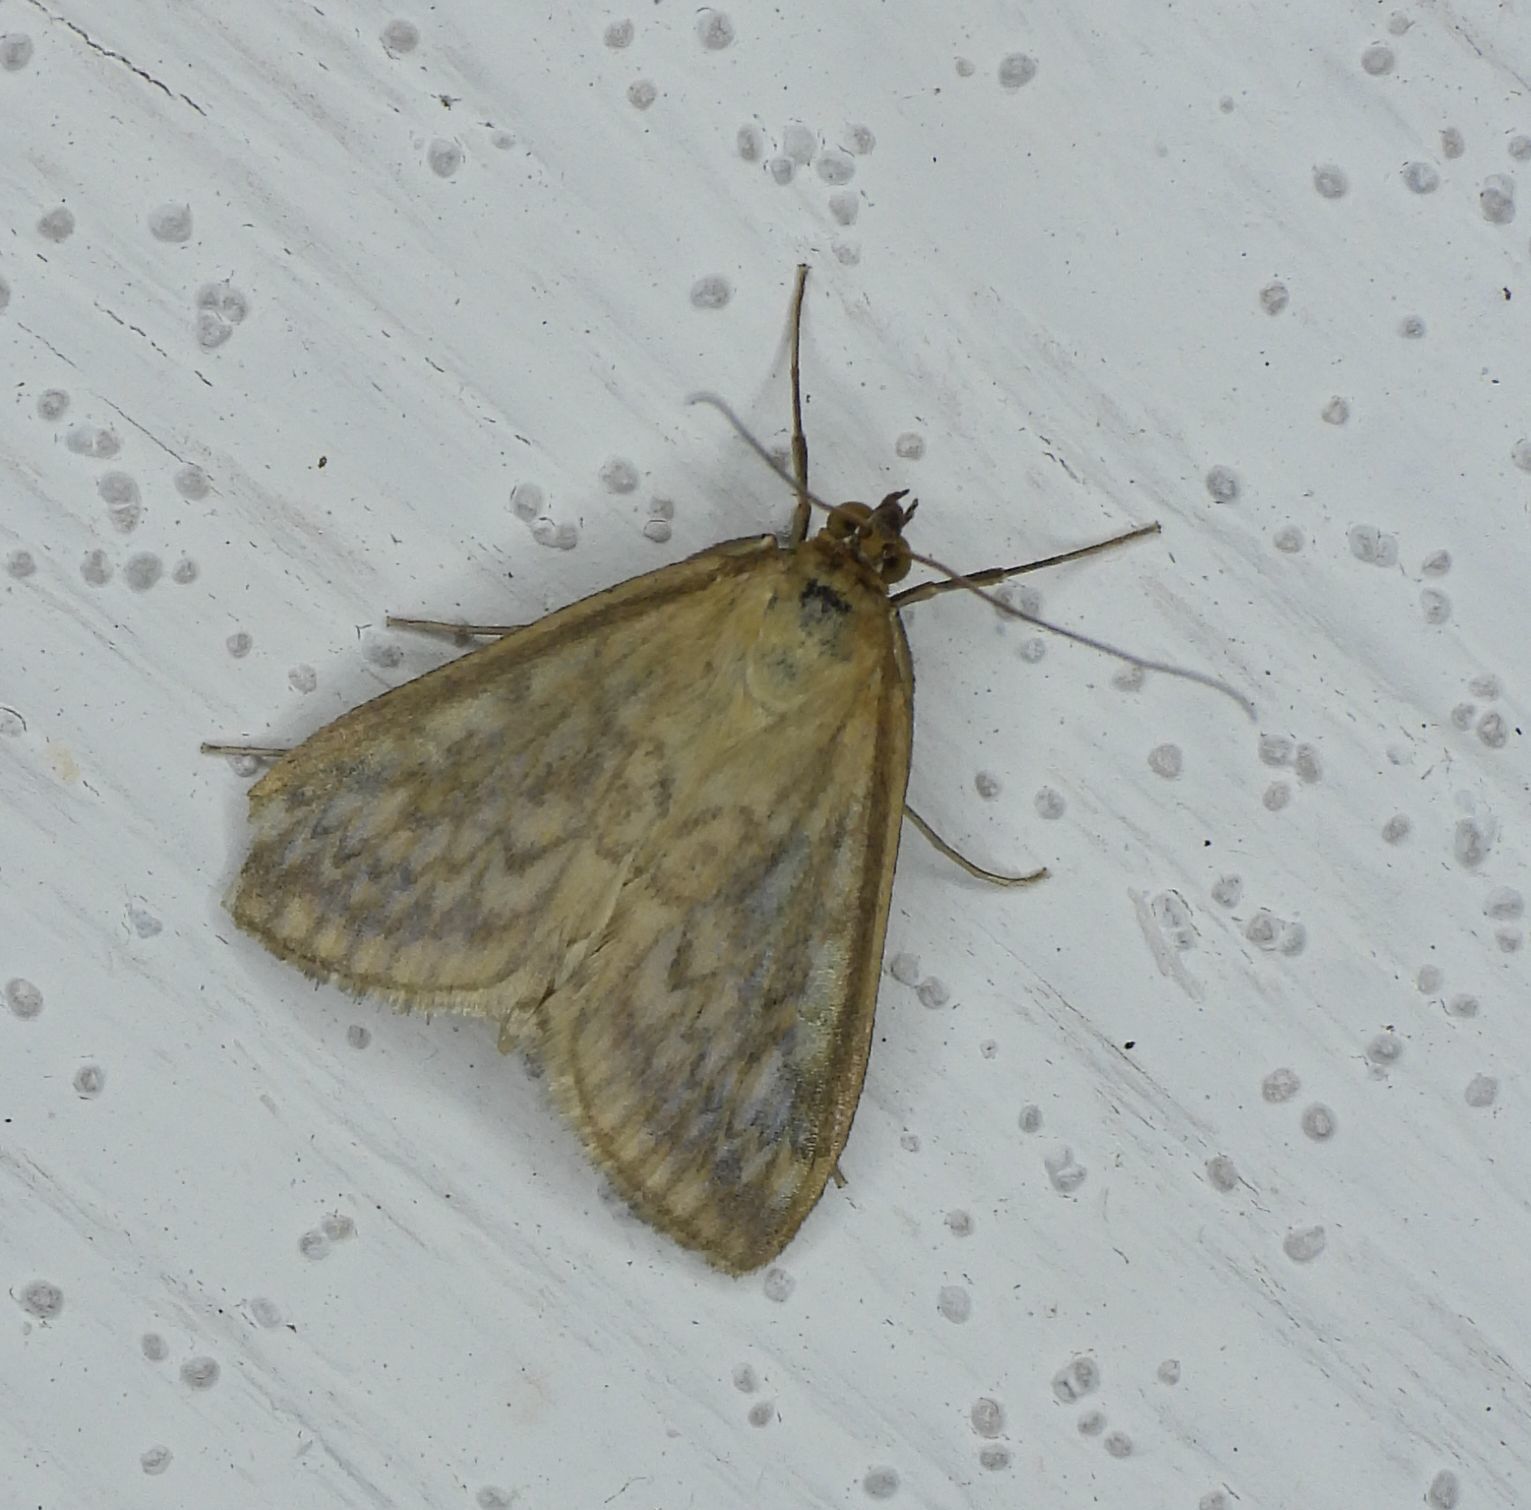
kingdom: Animalia
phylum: Arthropoda
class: Insecta
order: Lepidoptera
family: Crambidae
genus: Sitochroa
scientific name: Sitochroa chortalis
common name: Dimorphic sitochroa moth
